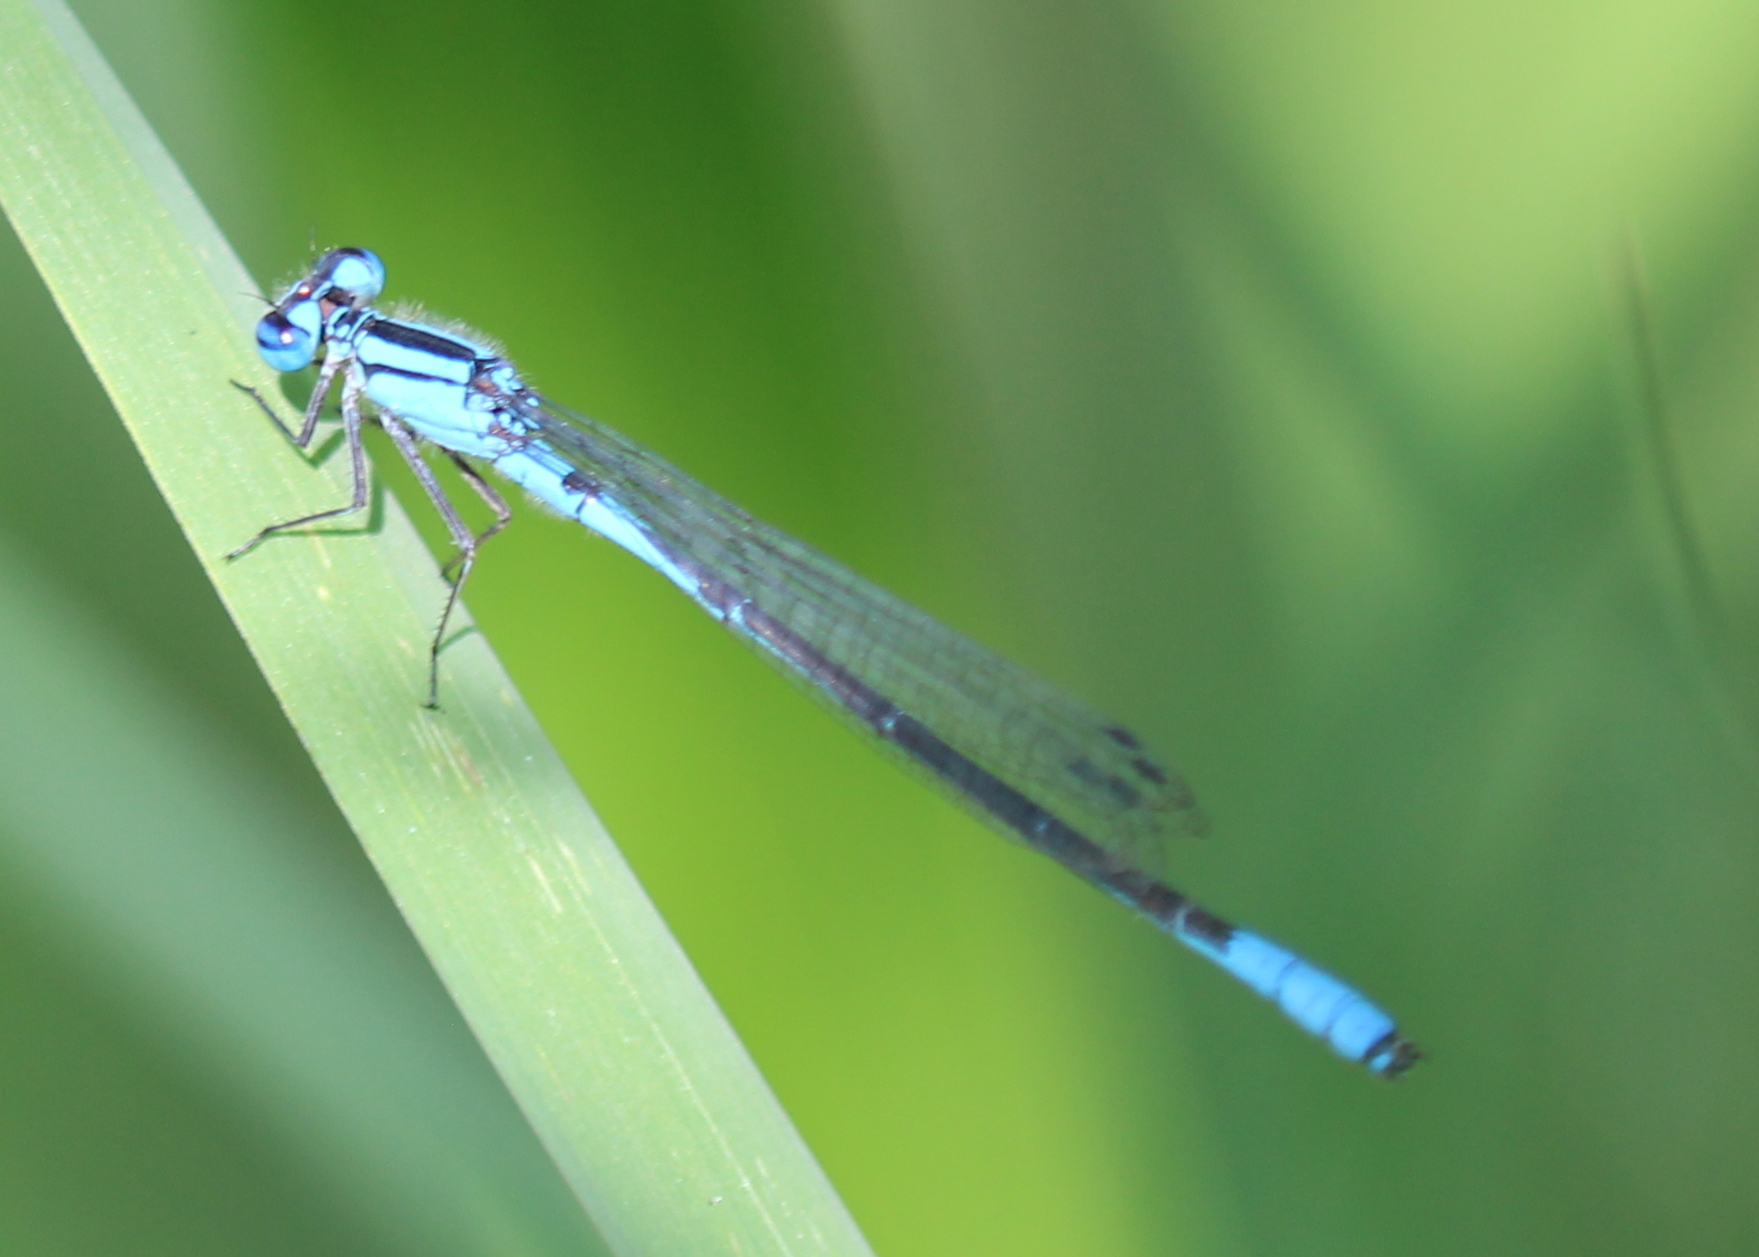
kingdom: Animalia
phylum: Arthropoda
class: Insecta
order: Odonata
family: Coenagrionidae
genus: Enallagma
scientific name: Enallagma aspersum
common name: Azure bluet
